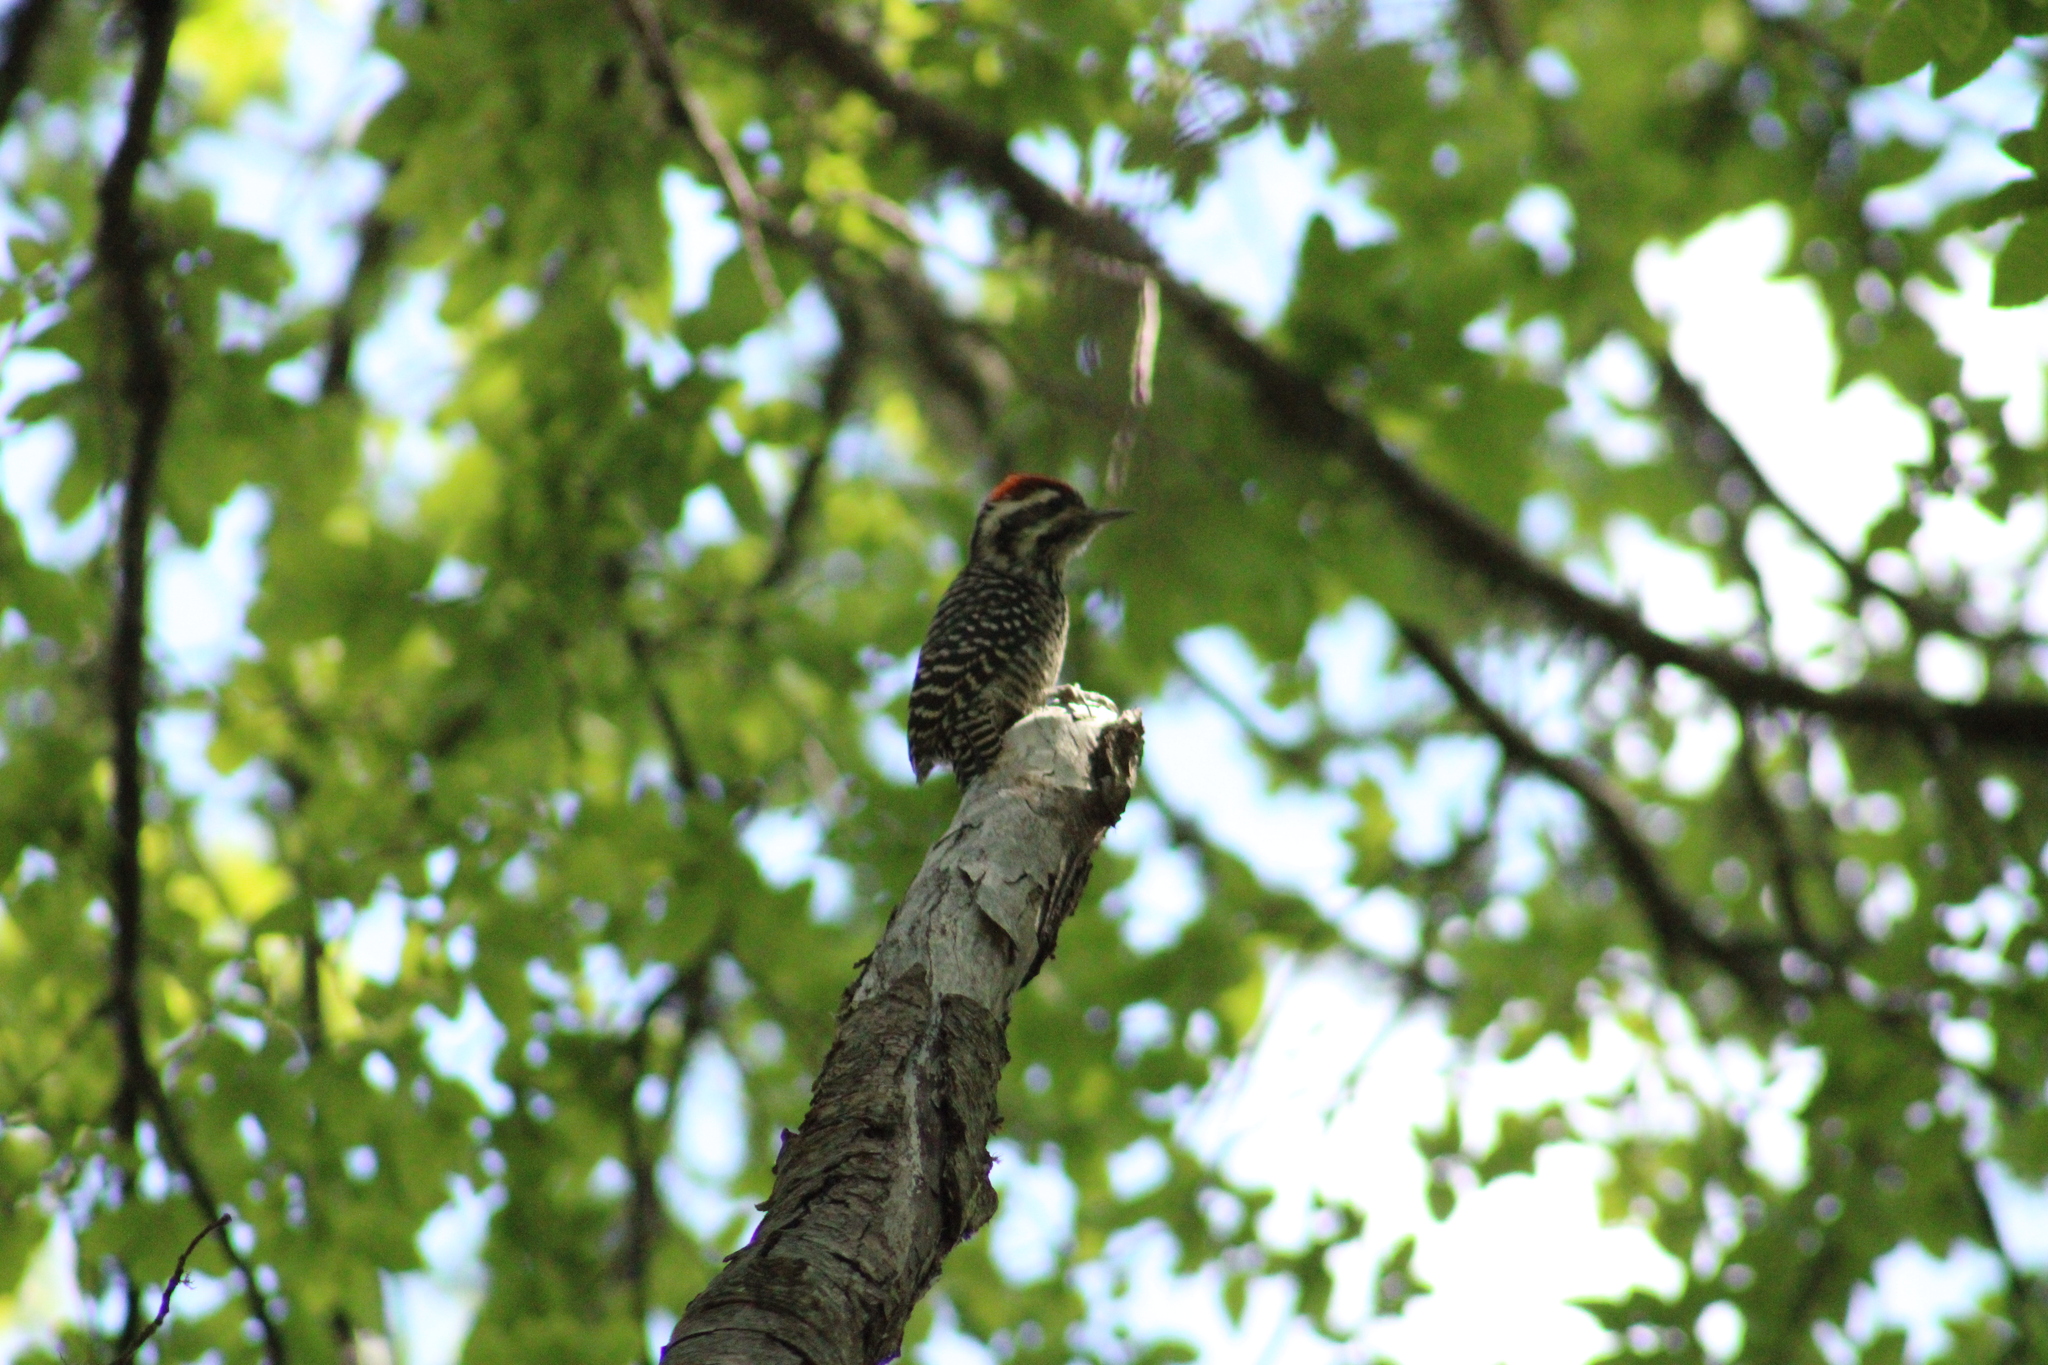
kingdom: Animalia
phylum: Chordata
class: Aves
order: Piciformes
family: Picidae
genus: Veniliornis
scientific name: Veniliornis lignarius
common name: Striped woodpecker
